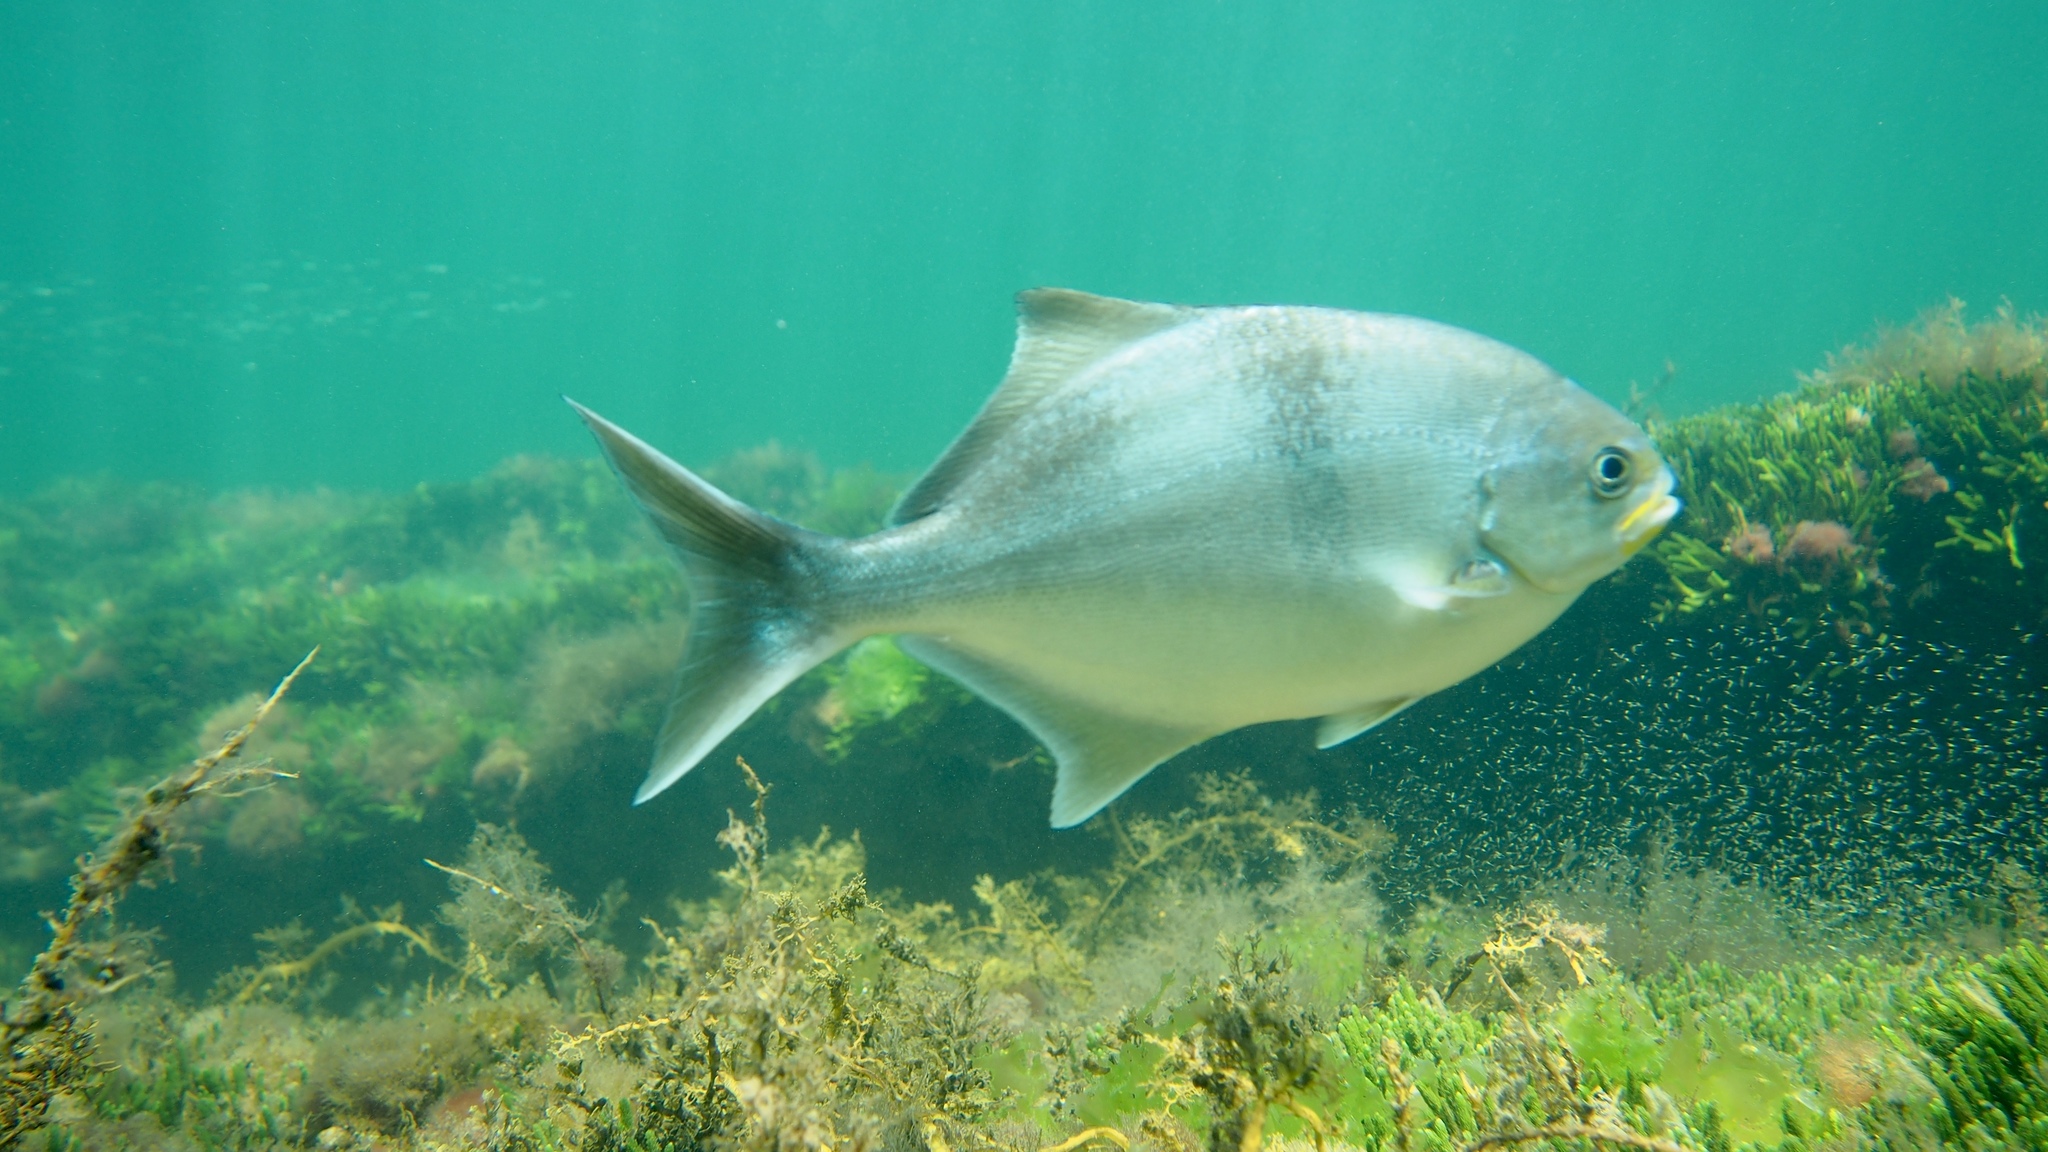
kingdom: Animalia
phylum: Chordata
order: Perciformes
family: Kyphosidae
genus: Scorpis
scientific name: Scorpis aequipinnis
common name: Sea sweep
